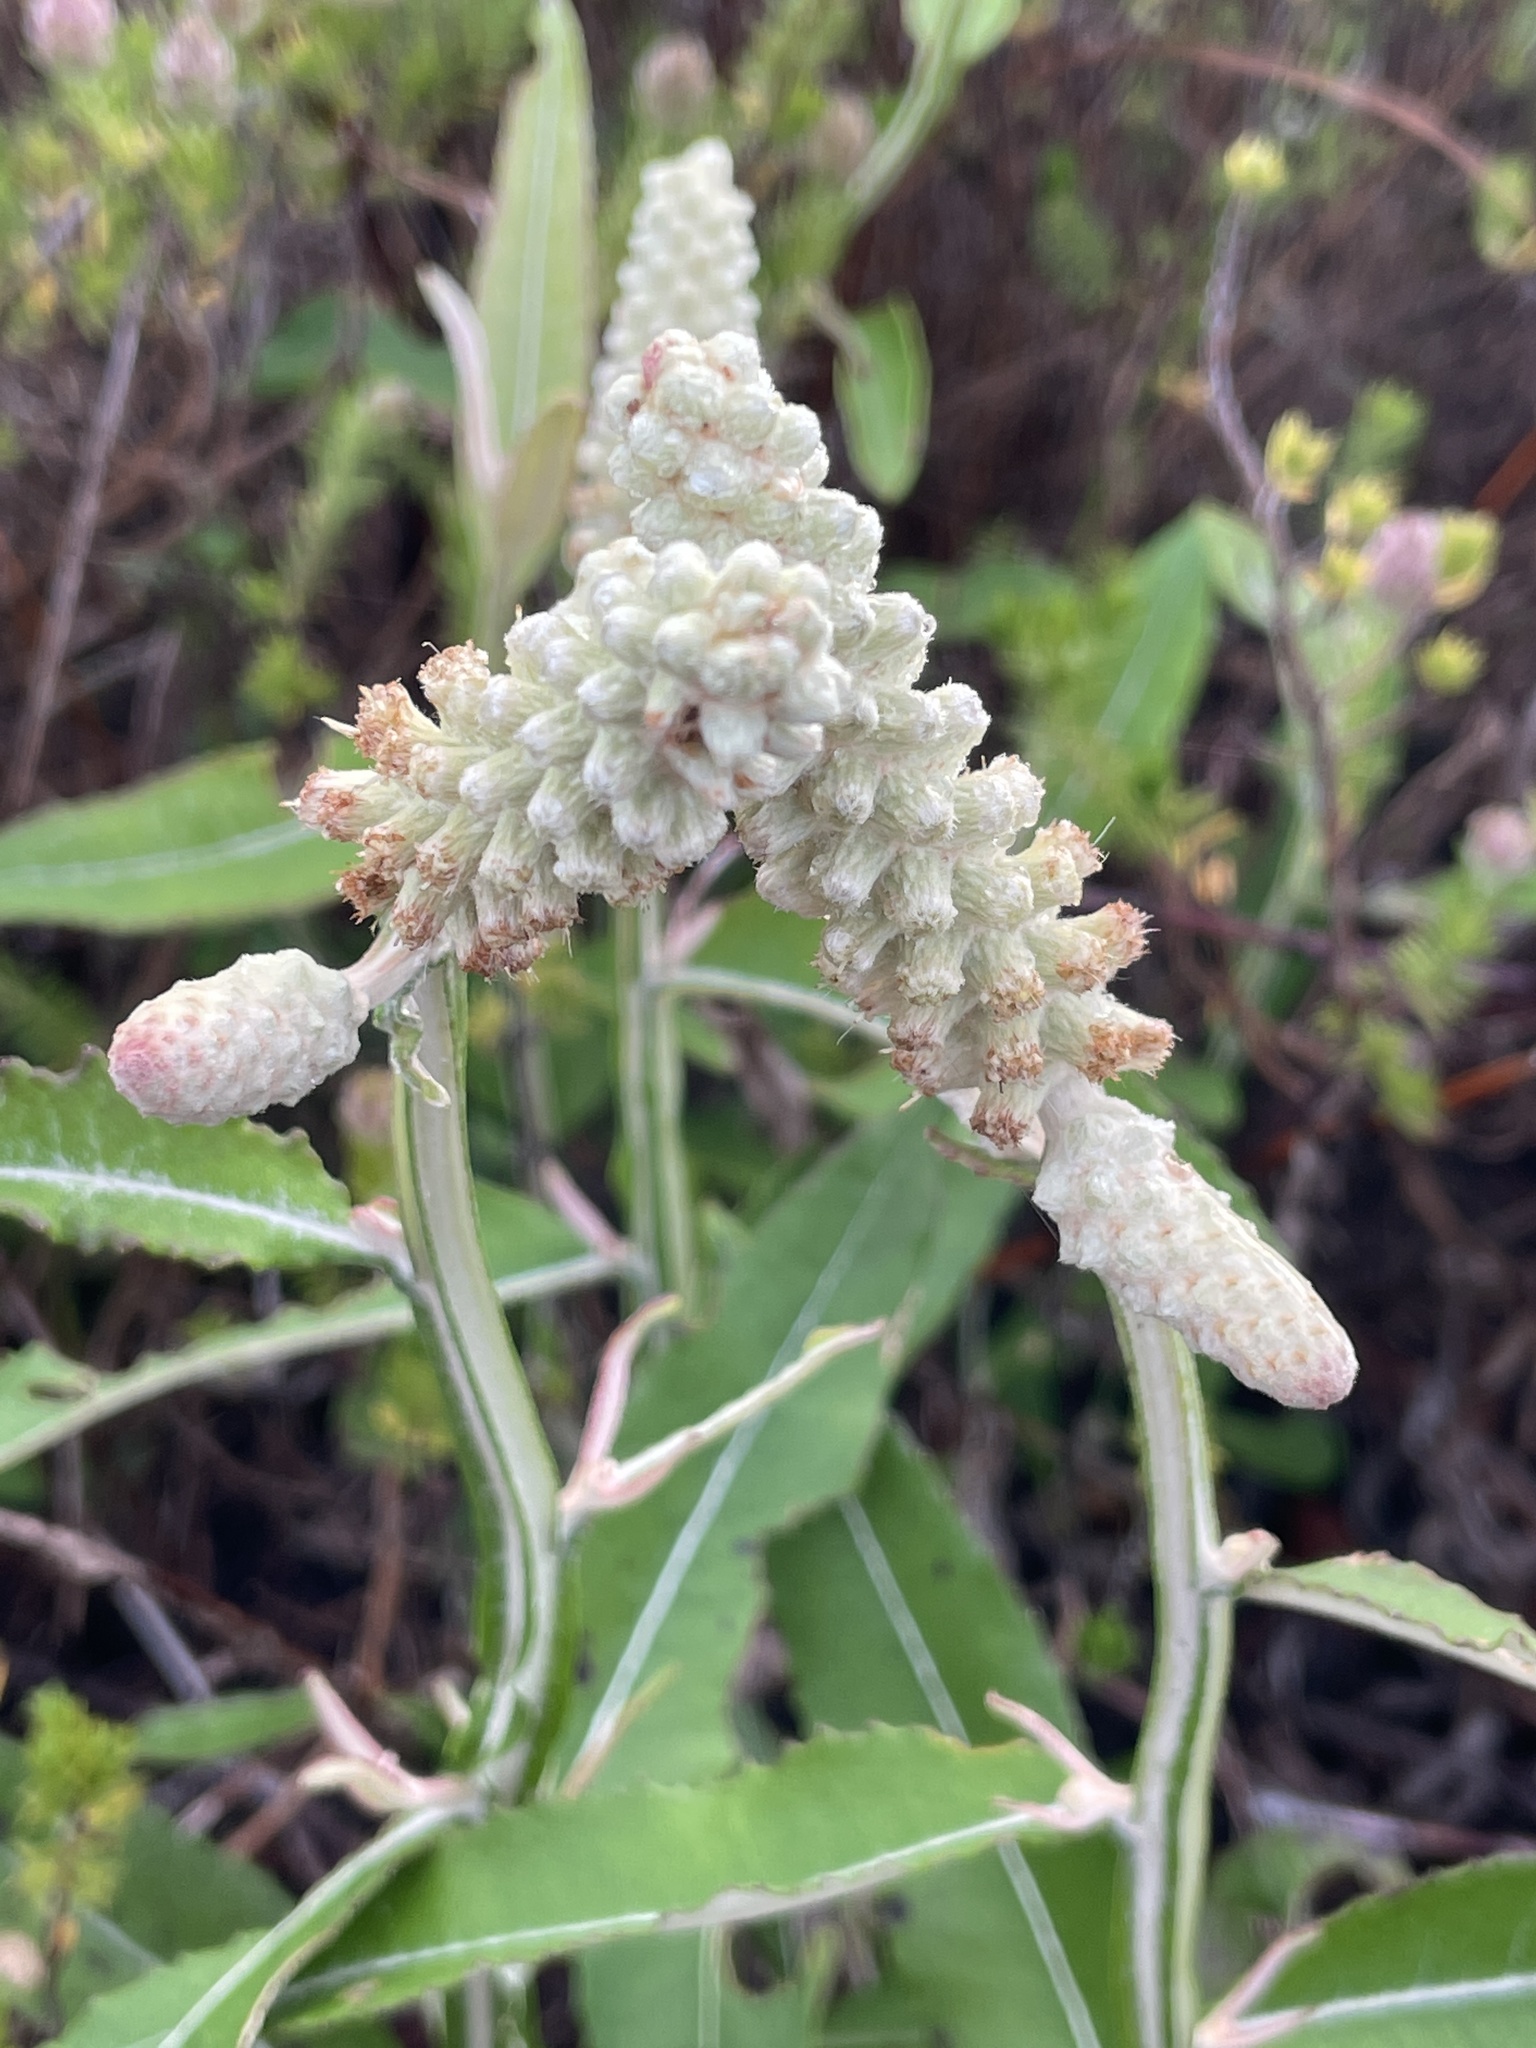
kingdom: Plantae
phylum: Tracheophyta
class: Magnoliopsida
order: Asterales
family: Asteraceae
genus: Pterocaulon
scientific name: Pterocaulon pycnostachyum
